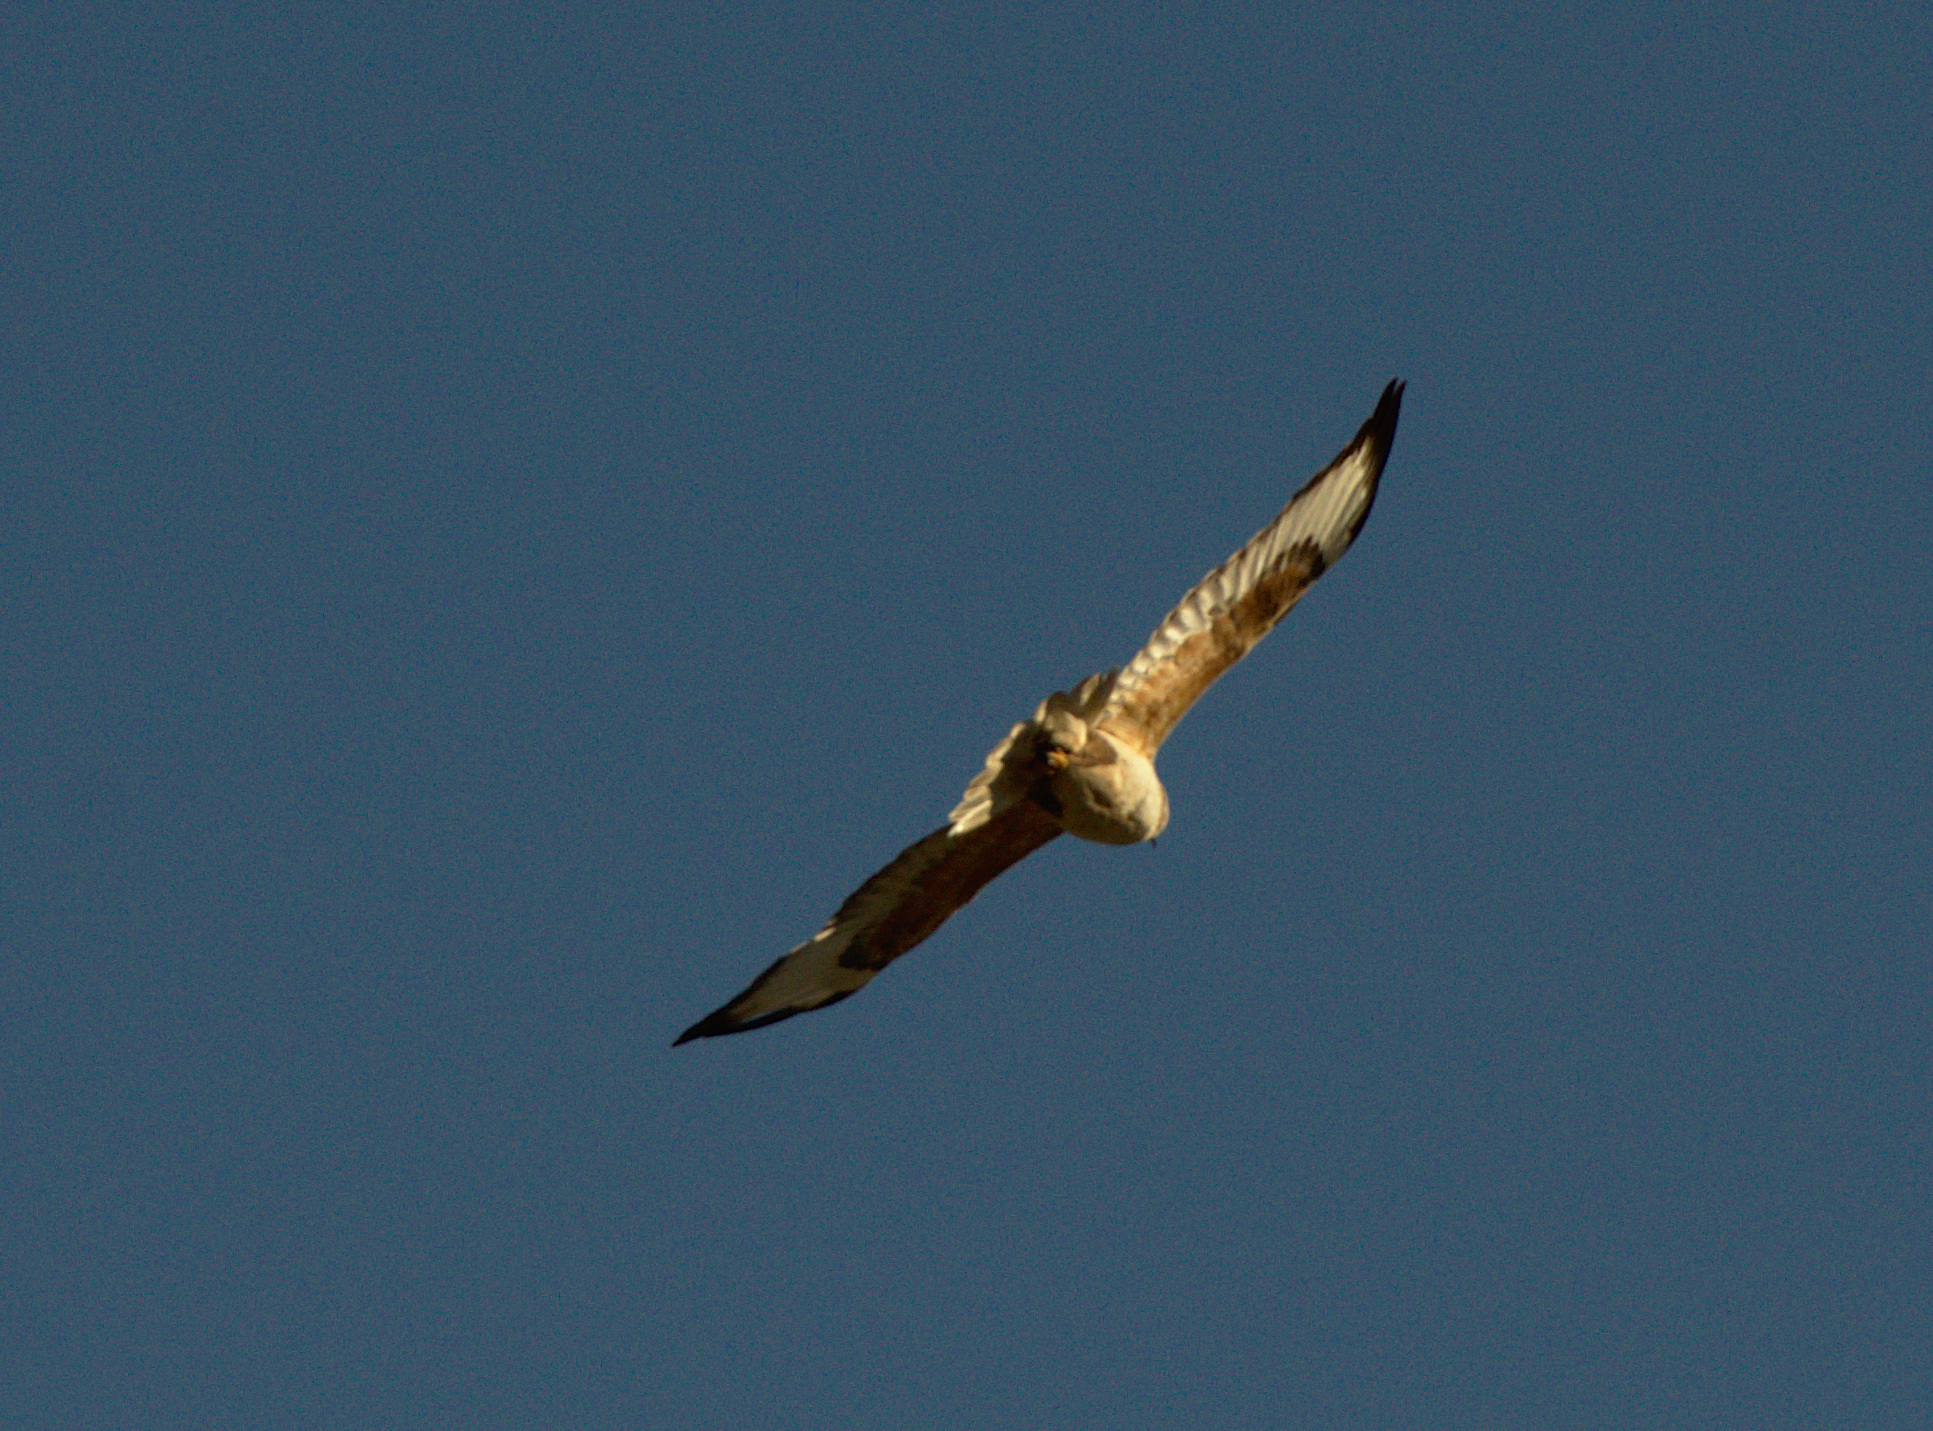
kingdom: Animalia
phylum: Chordata
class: Aves
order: Accipitriformes
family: Accipitridae
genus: Buteo
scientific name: Buteo hemilasius
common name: Upland buzzard
